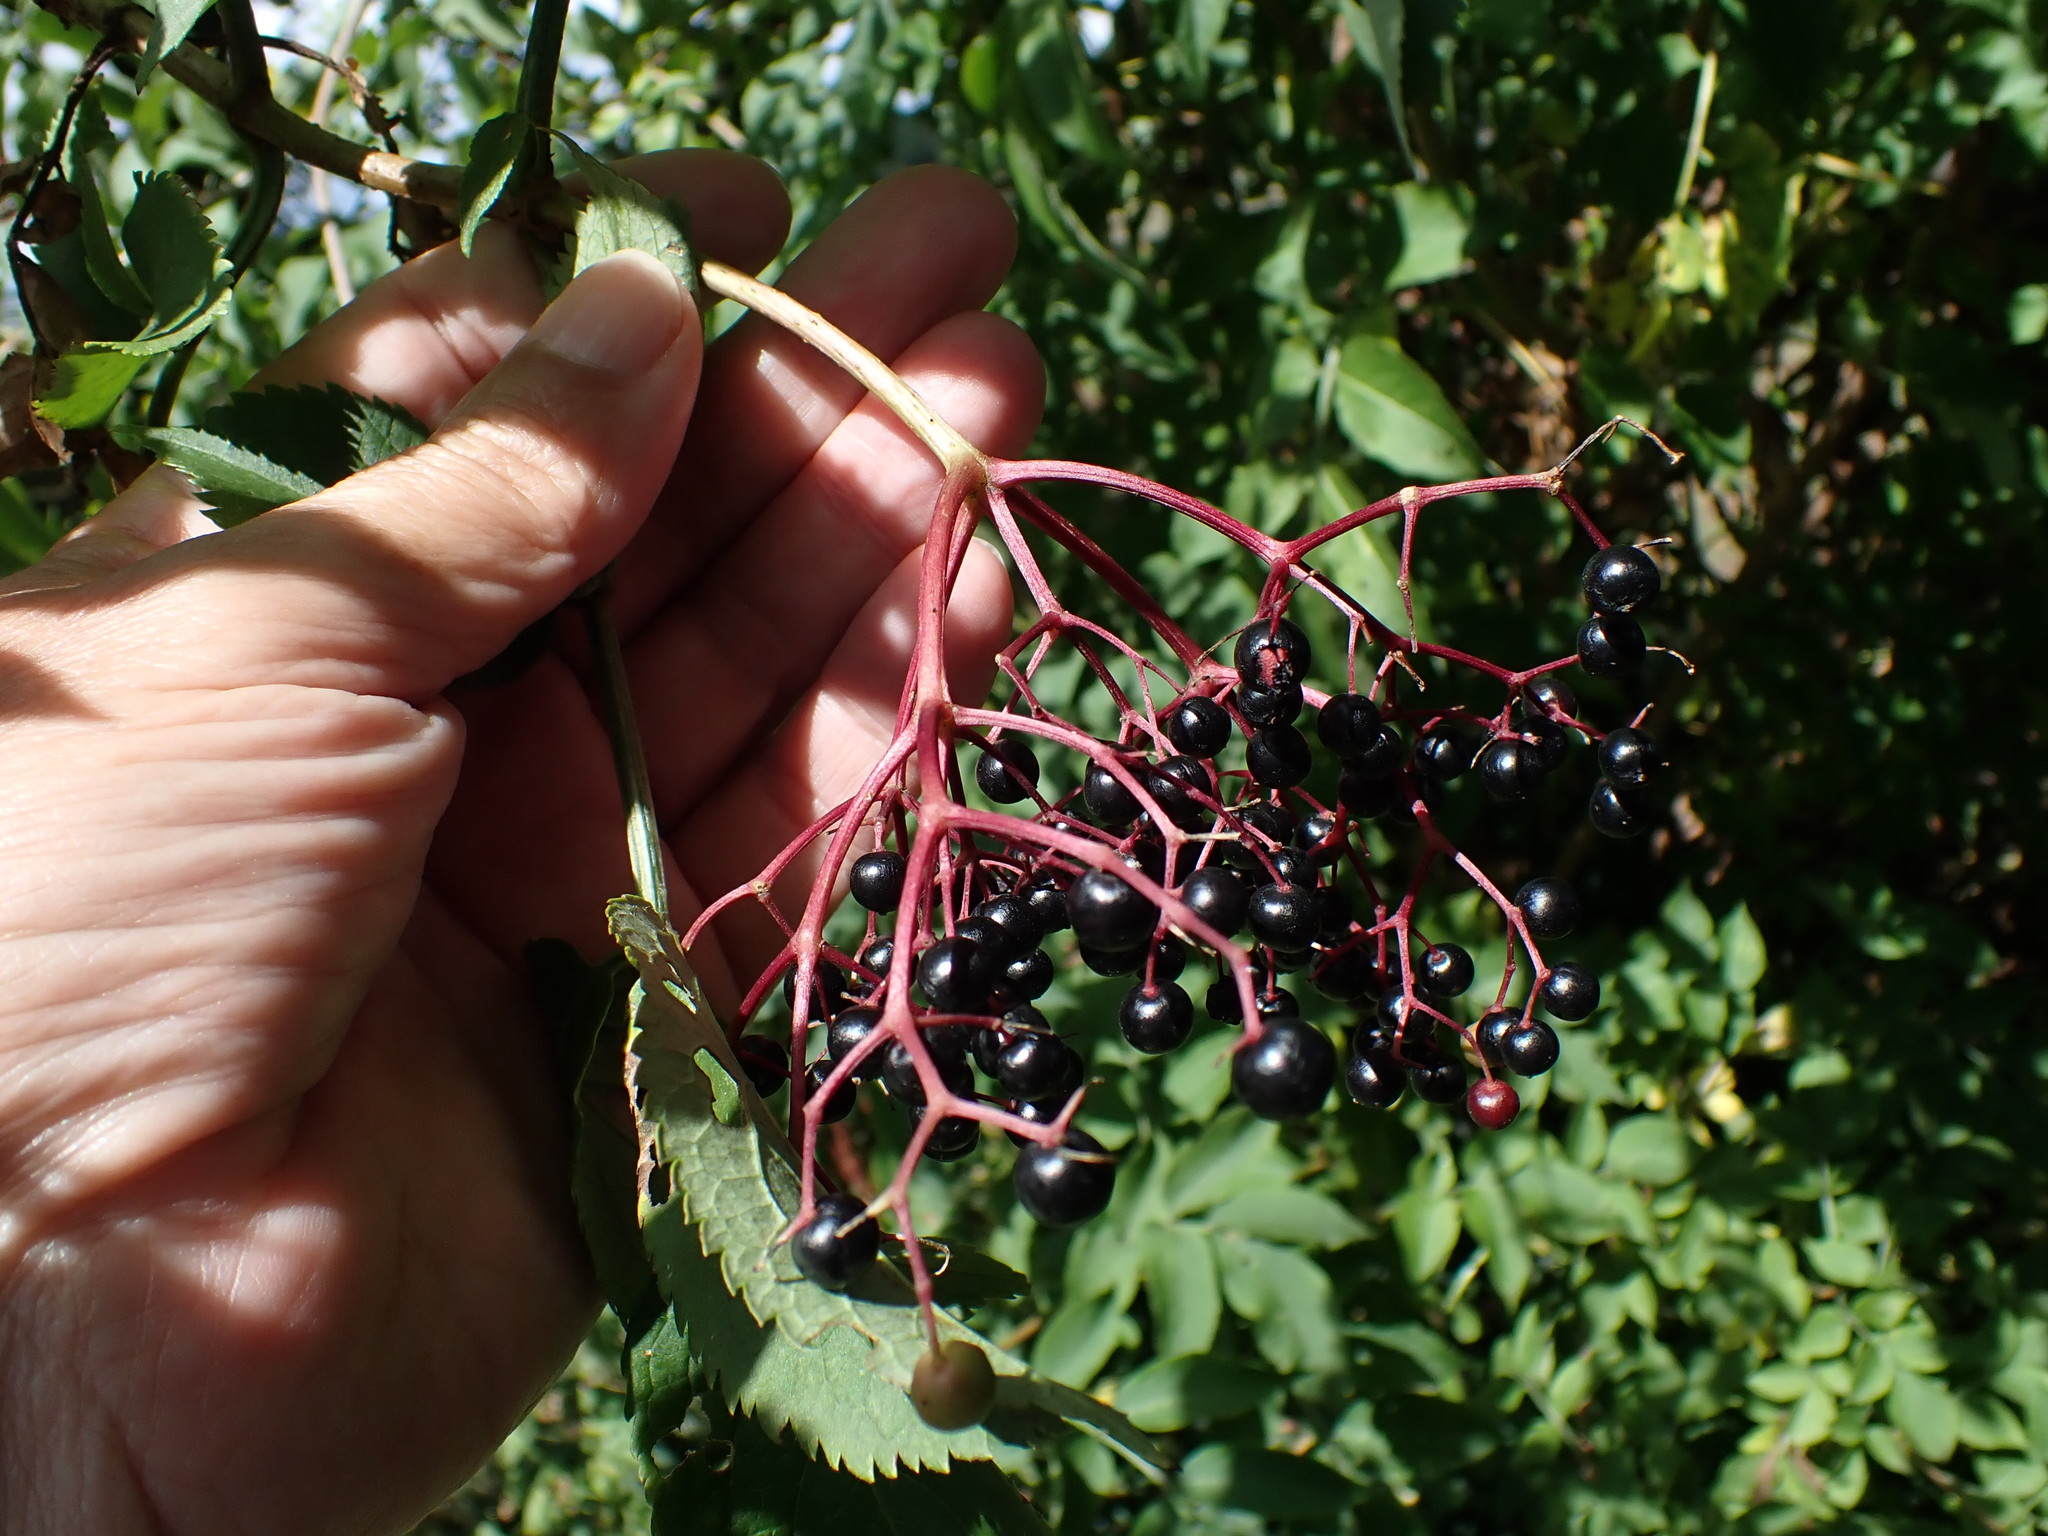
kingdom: Plantae
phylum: Tracheophyta
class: Magnoliopsida
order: Dipsacales
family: Viburnaceae
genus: Sambucus
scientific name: Sambucus nigra
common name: Elder
